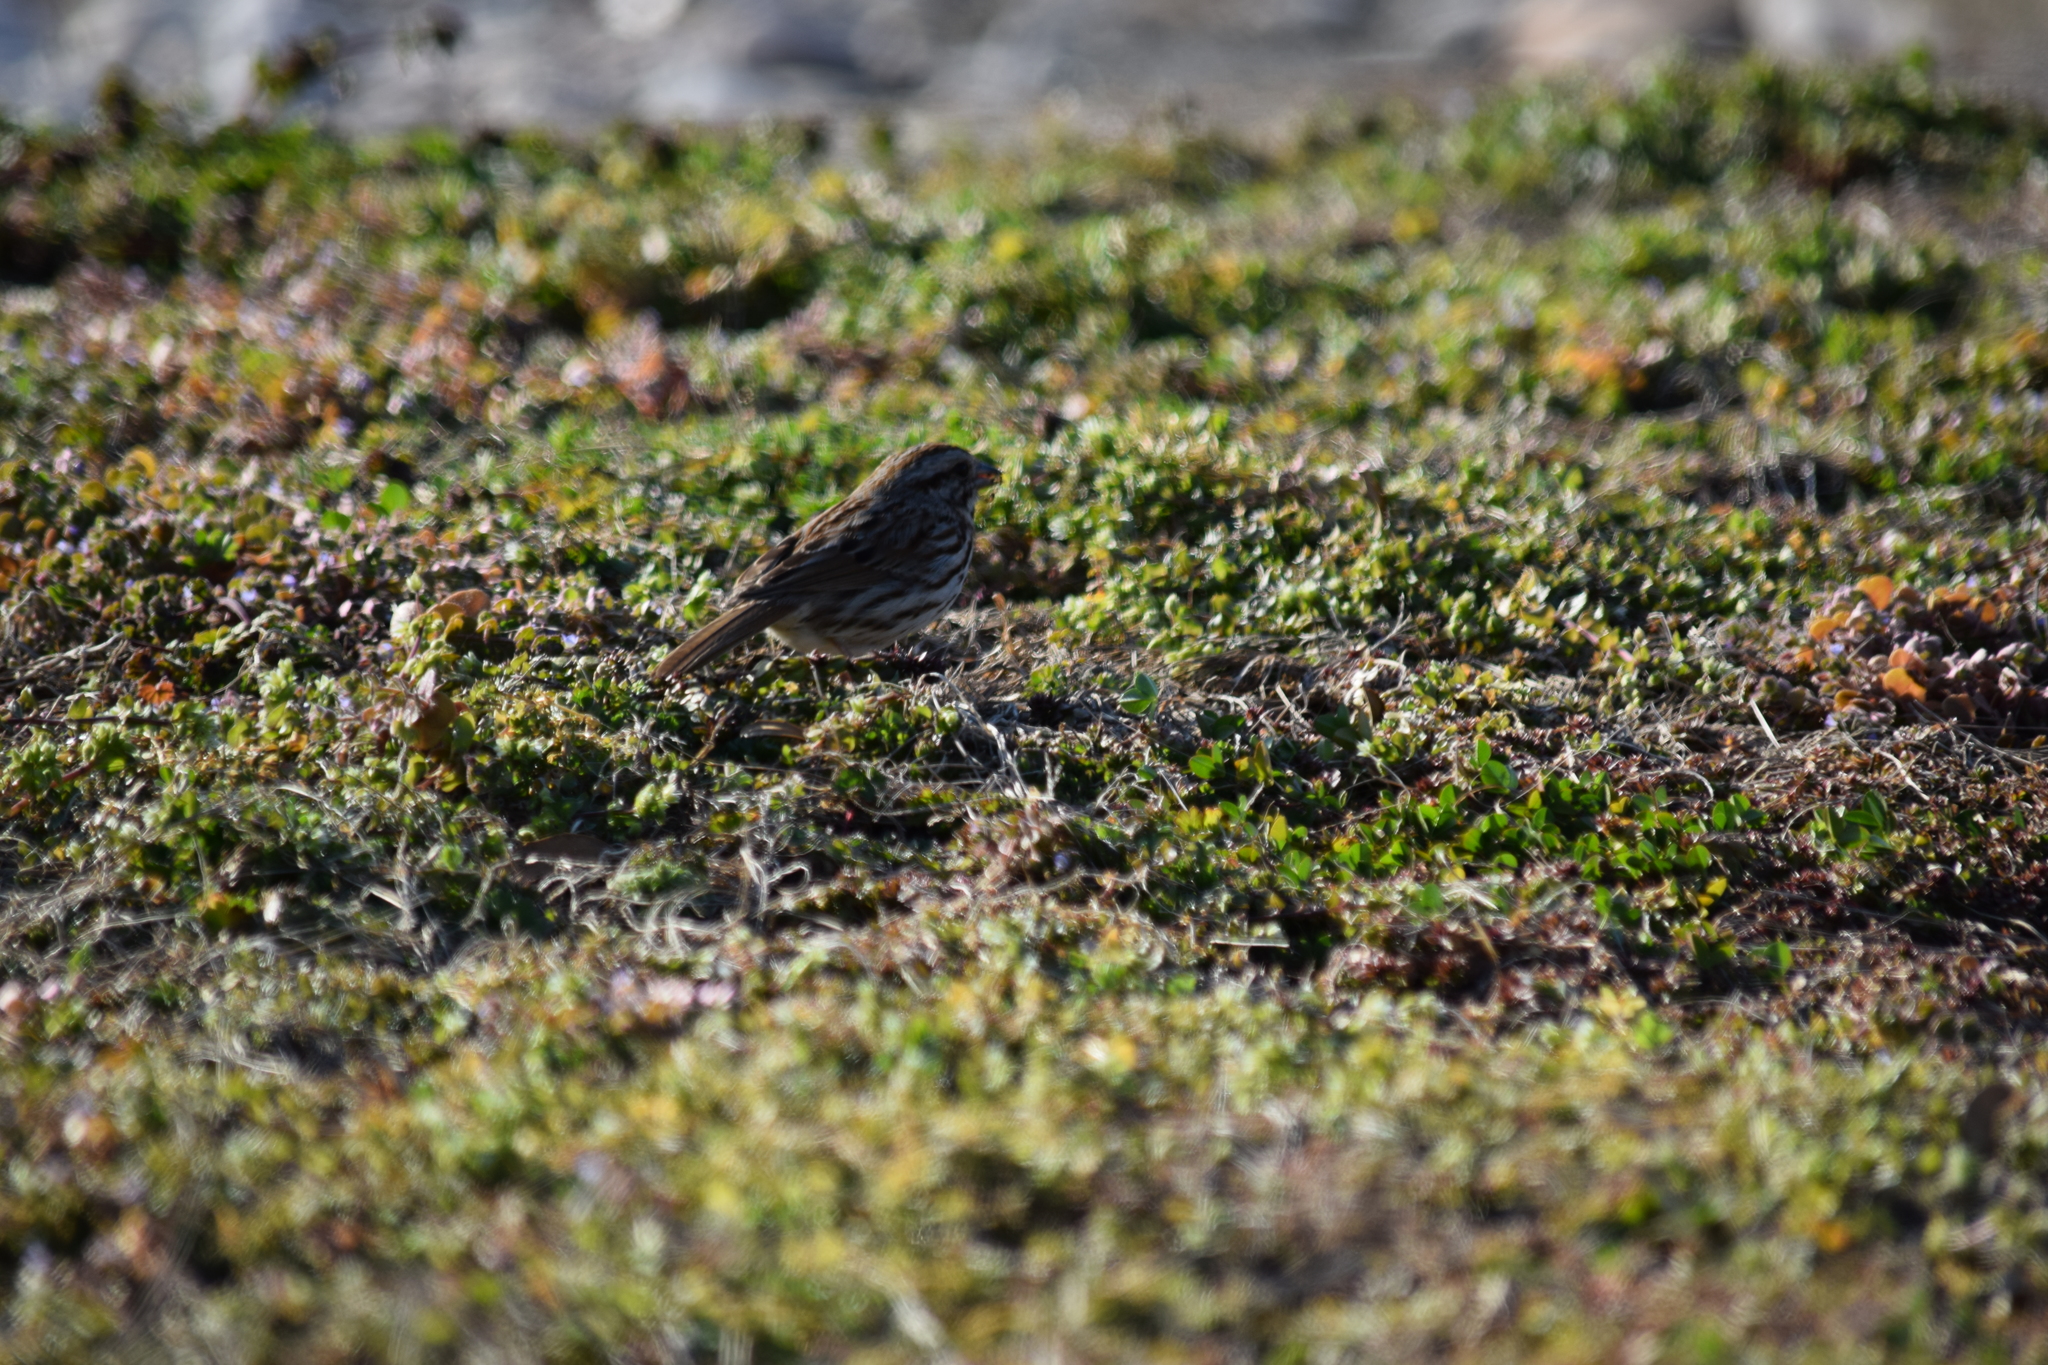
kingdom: Animalia
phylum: Chordata
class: Aves
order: Passeriformes
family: Passerellidae
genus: Melospiza
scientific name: Melospiza melodia
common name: Song sparrow
